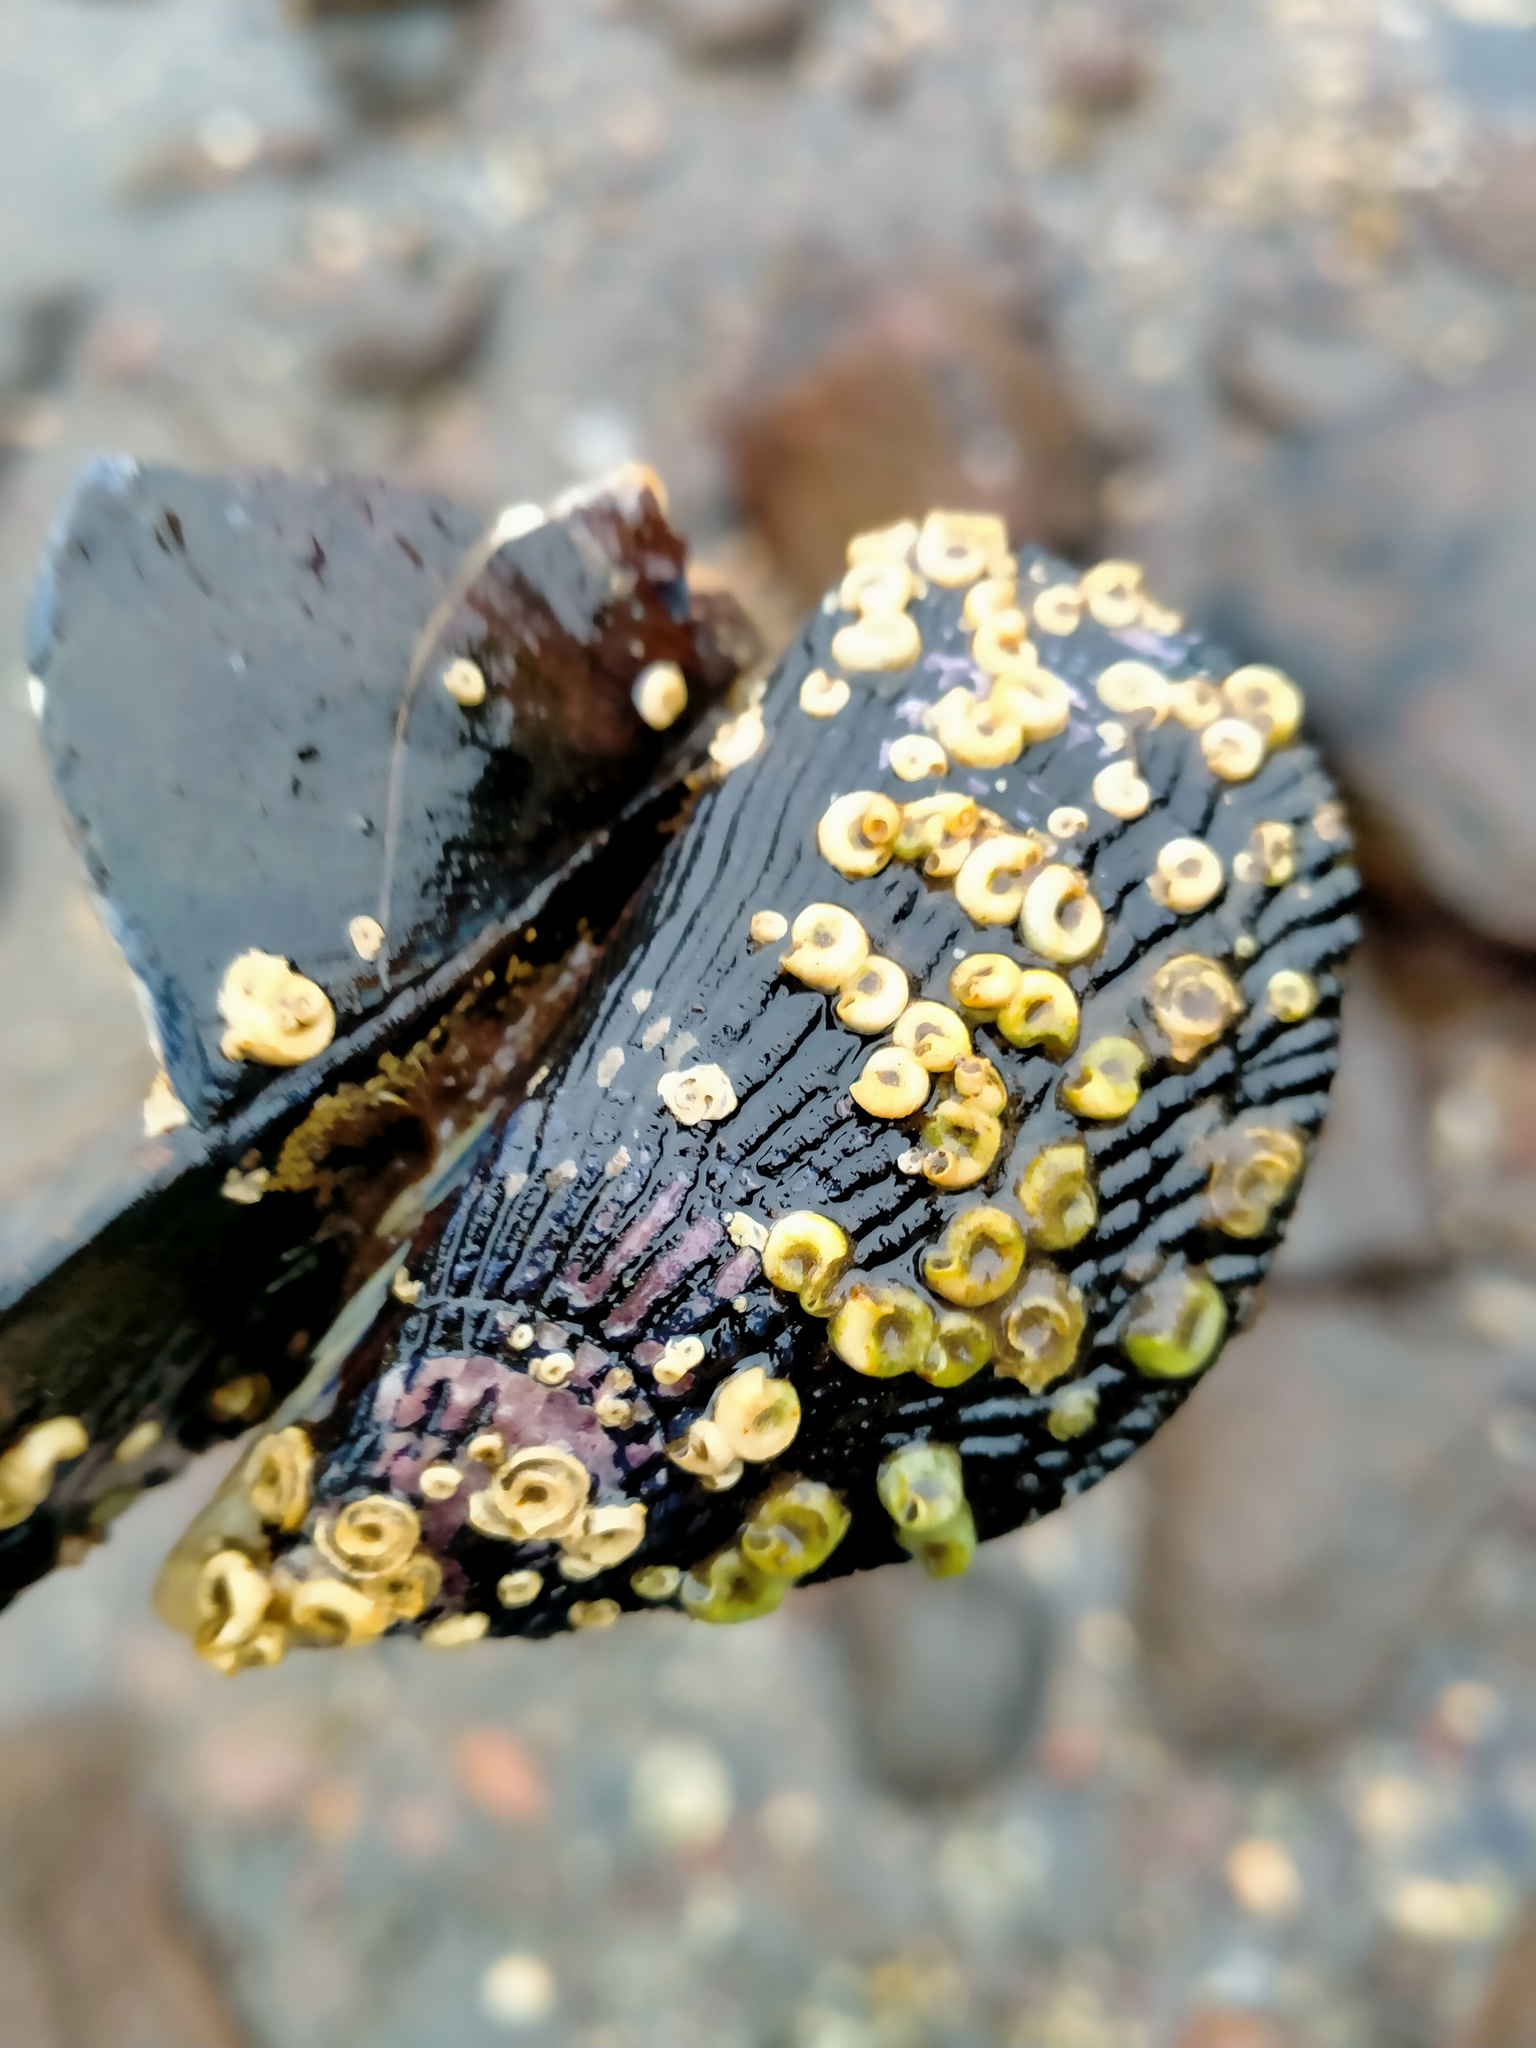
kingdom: Animalia
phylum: Mollusca
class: Bivalvia
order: Mytilida
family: Mytilidae
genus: Aulacomya
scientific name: Aulacomya maoriana
